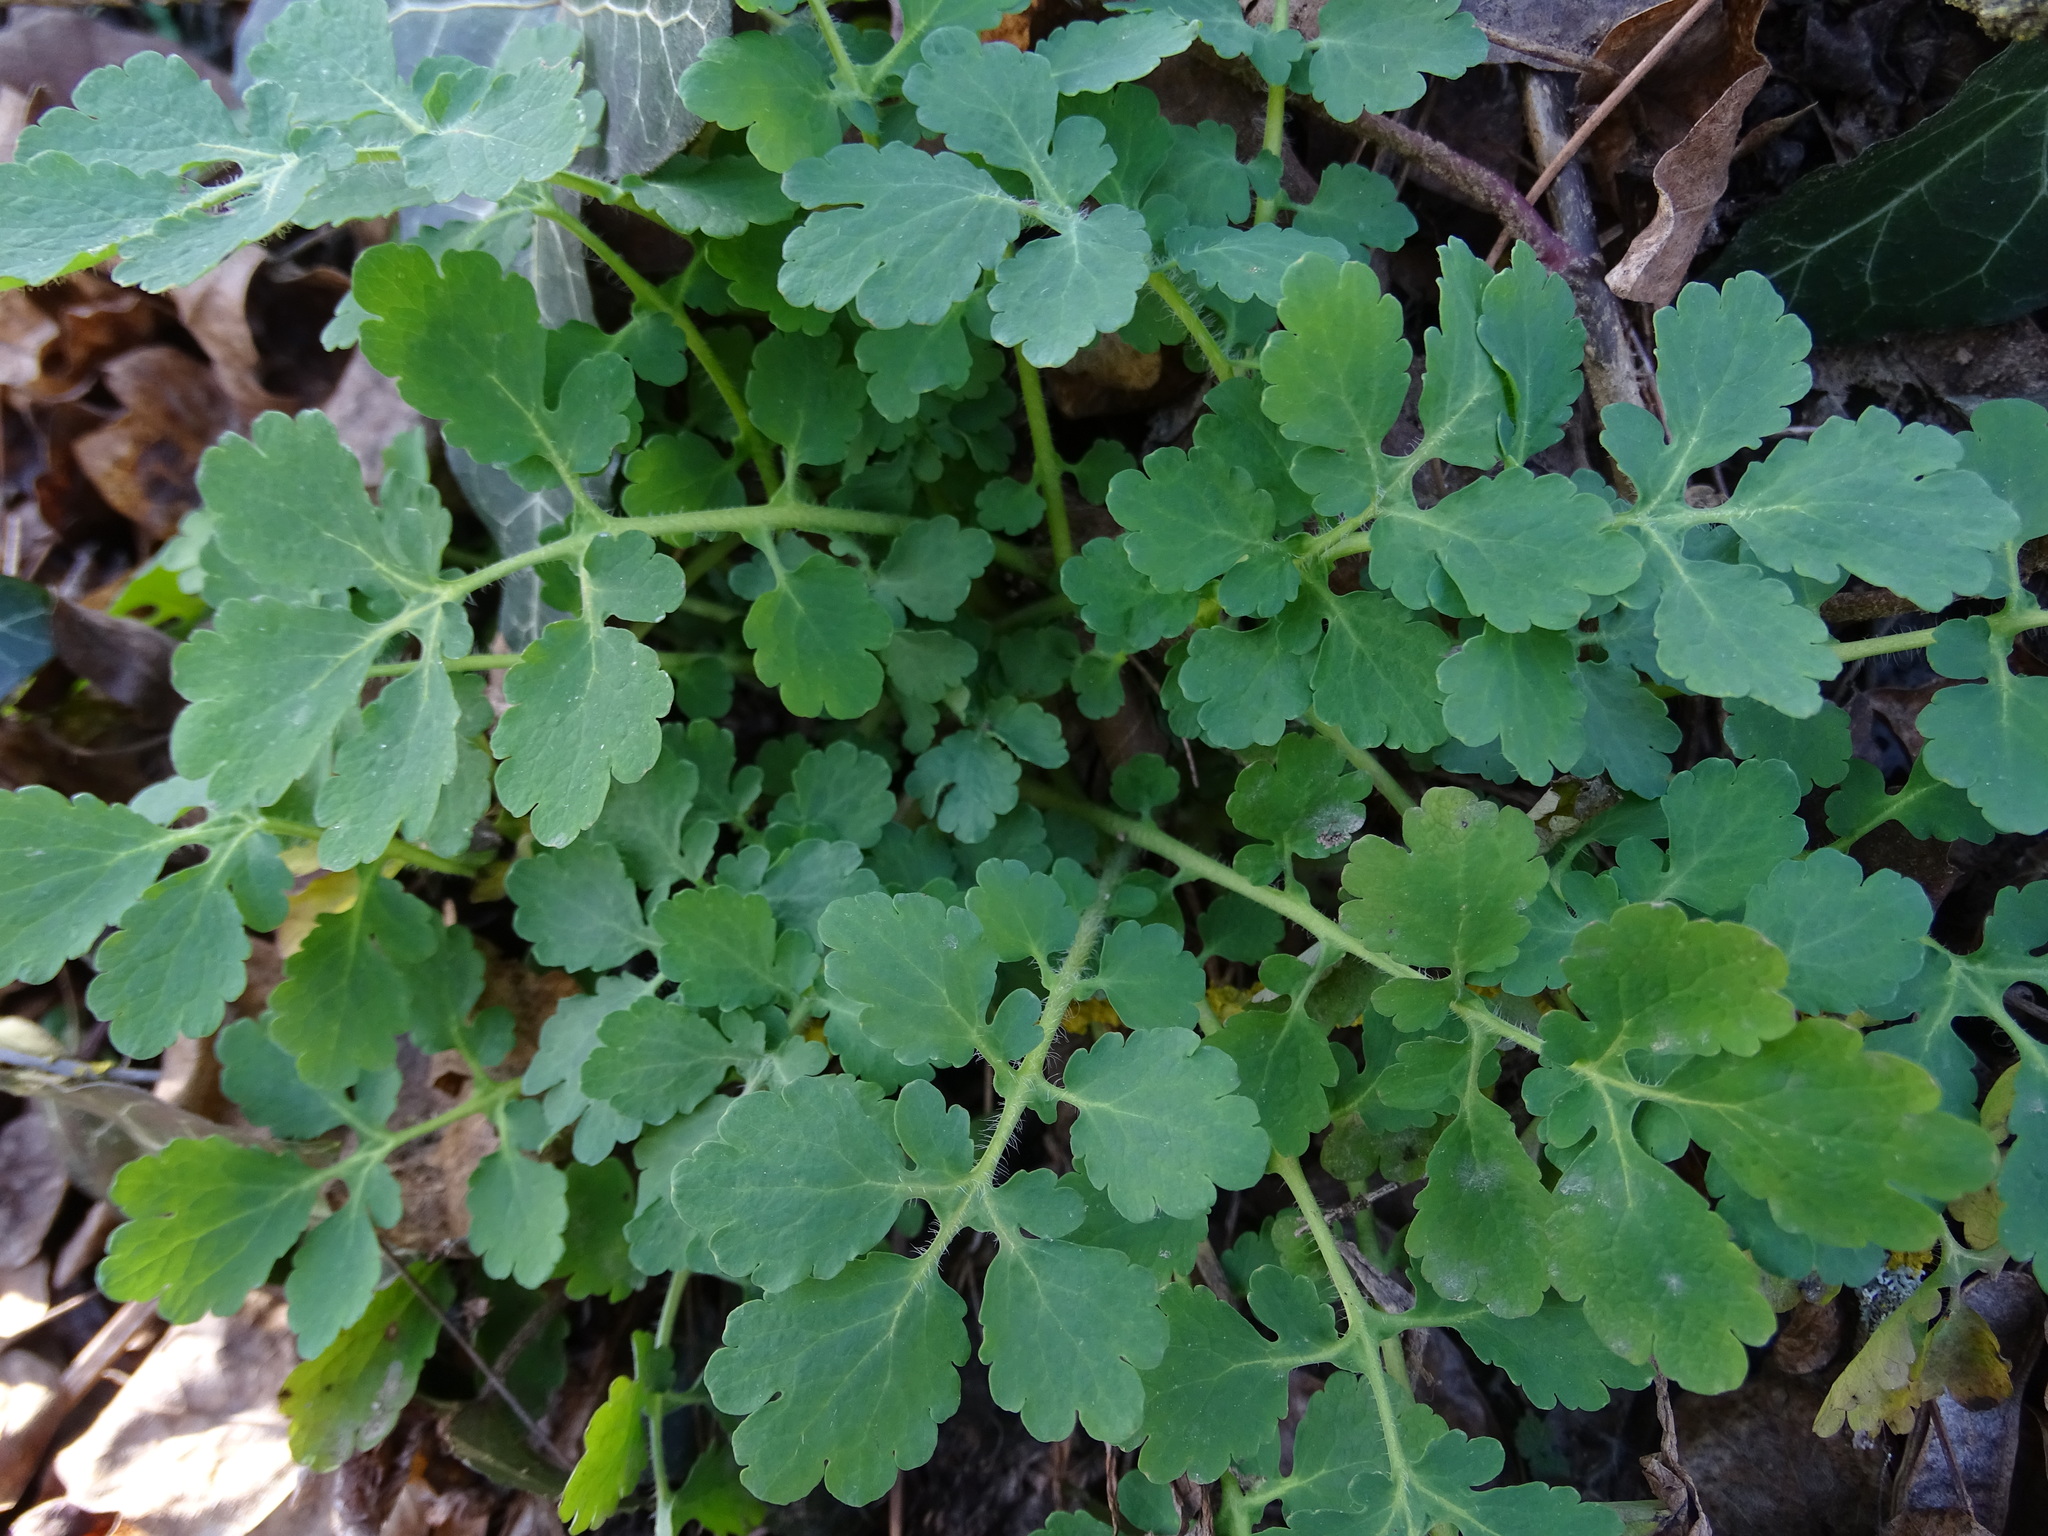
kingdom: Plantae
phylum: Tracheophyta
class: Magnoliopsida
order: Ranunculales
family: Papaveraceae
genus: Chelidonium
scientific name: Chelidonium majus
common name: Greater celandine
